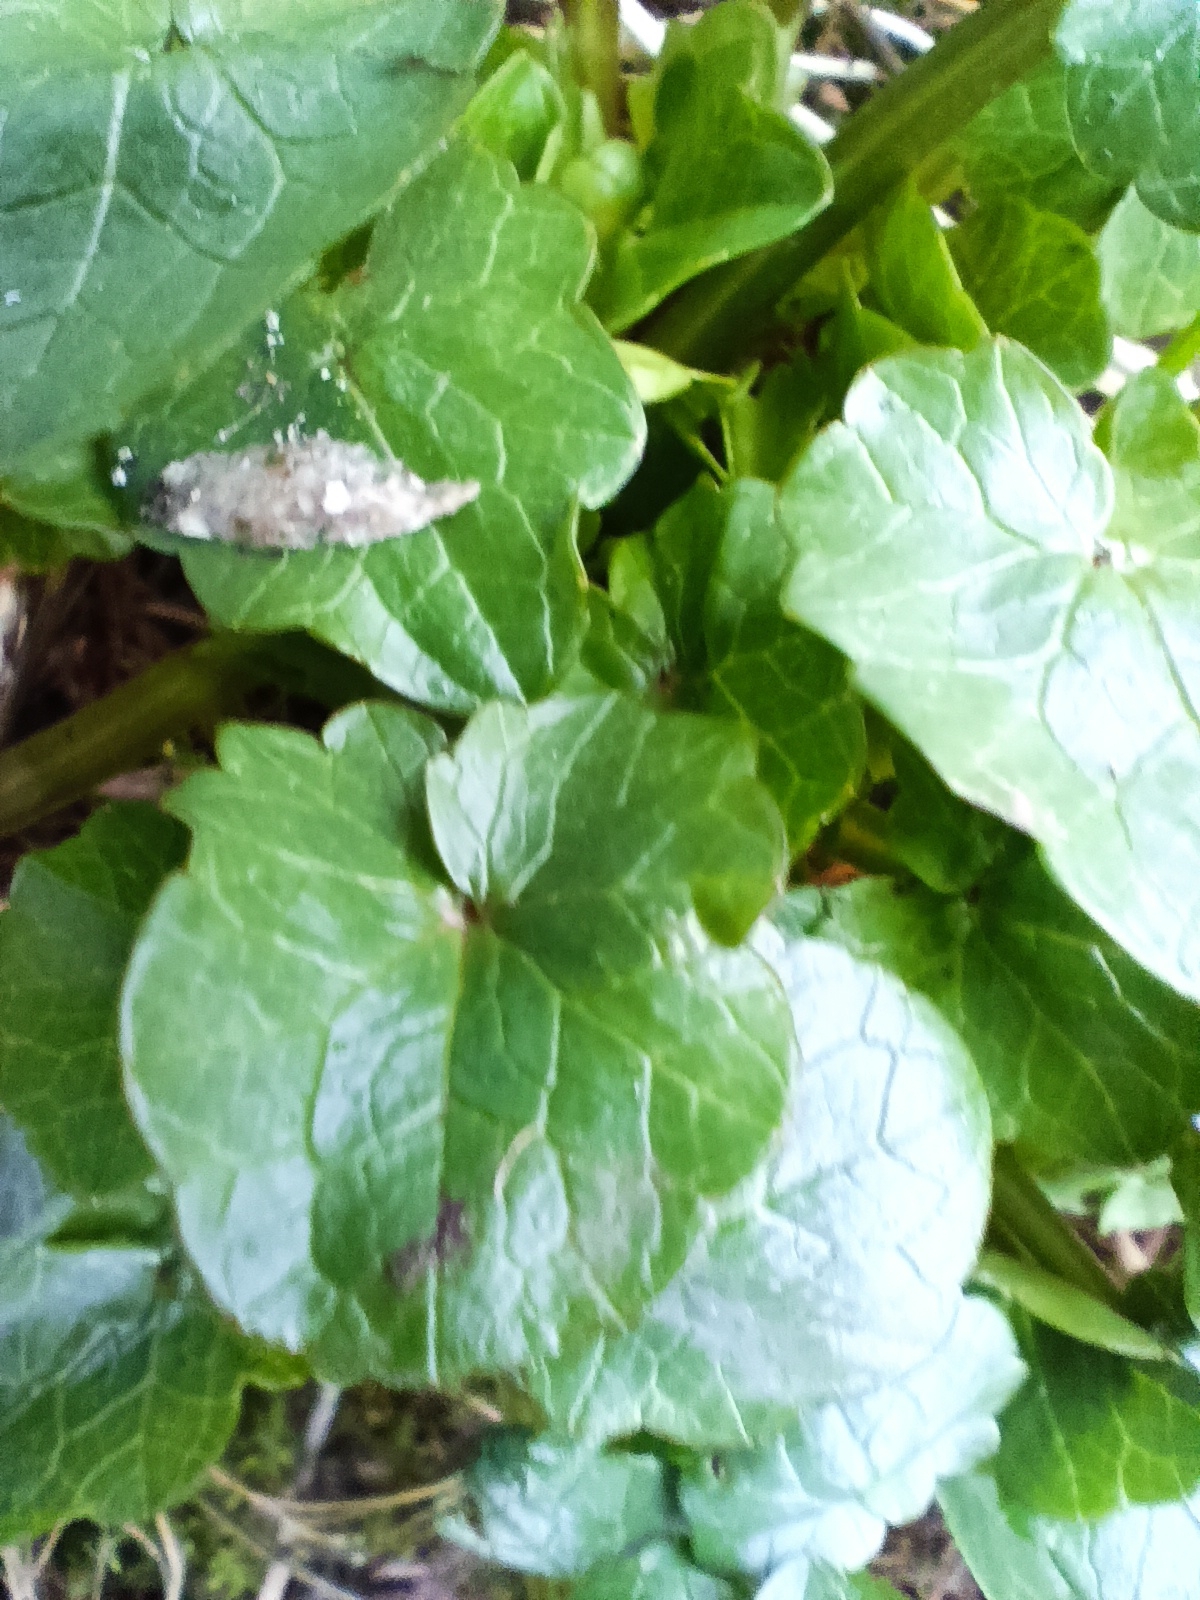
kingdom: Plantae
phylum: Tracheophyta
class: Magnoliopsida
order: Ranunculales
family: Ranunculaceae
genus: Ficaria
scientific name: Ficaria verna
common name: Lesser celandine
